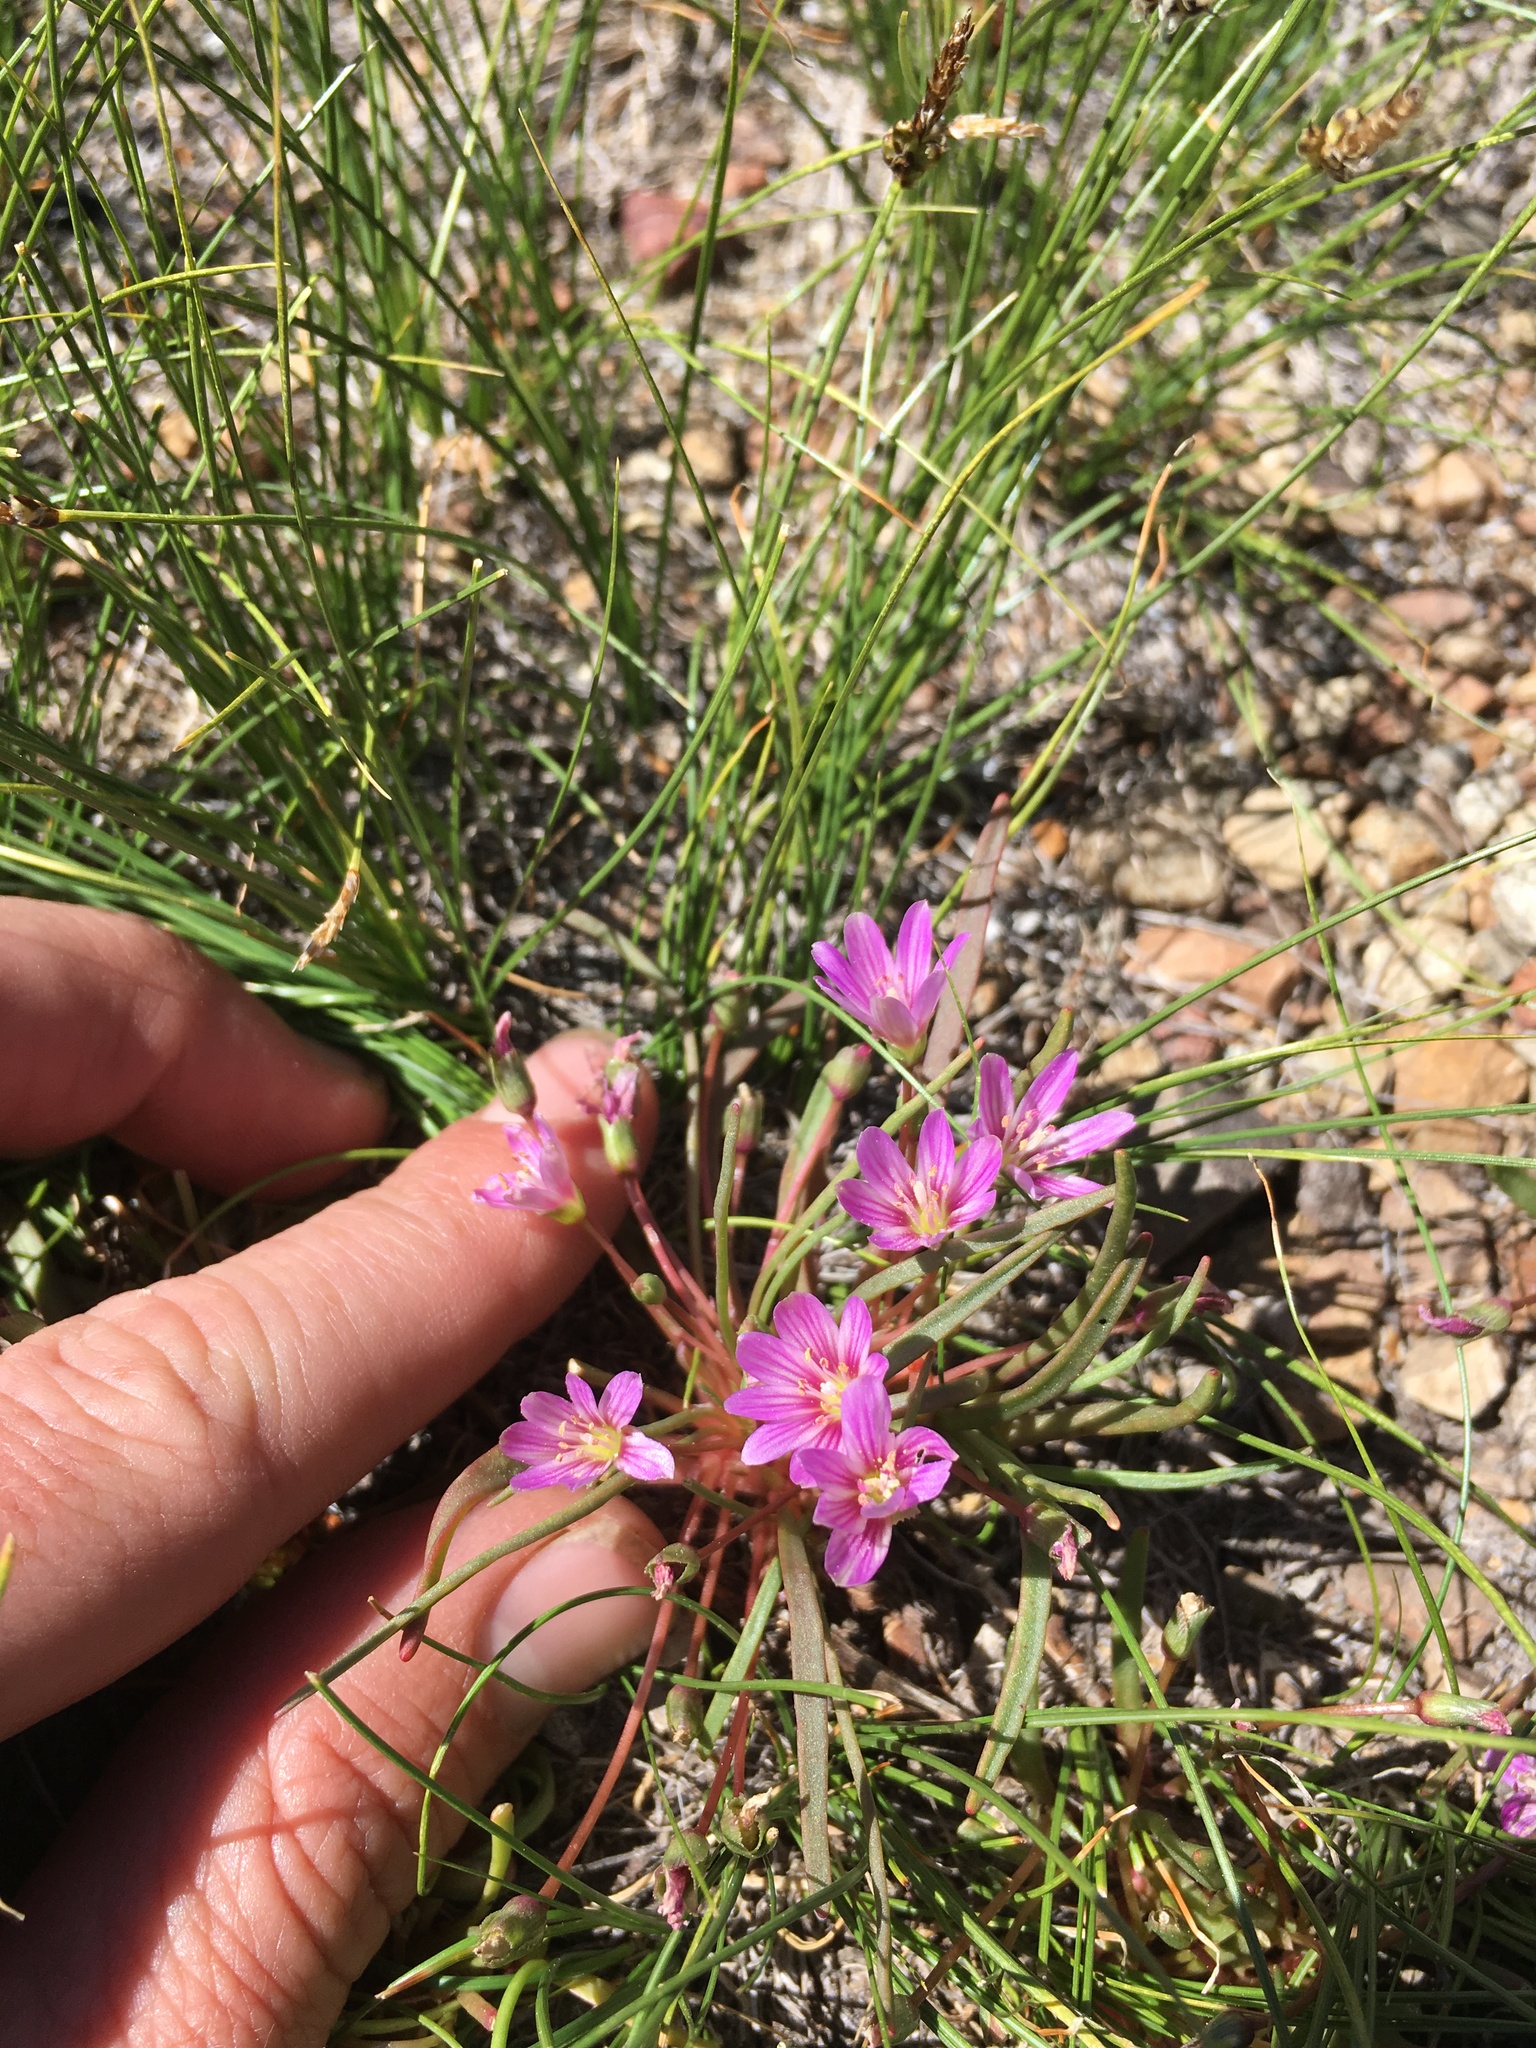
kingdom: Plantae
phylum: Tracheophyta
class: Magnoliopsida
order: Caryophyllales
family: Montiaceae
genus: Lewisia
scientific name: Lewisia pygmaea
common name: Alpine bitterroot
